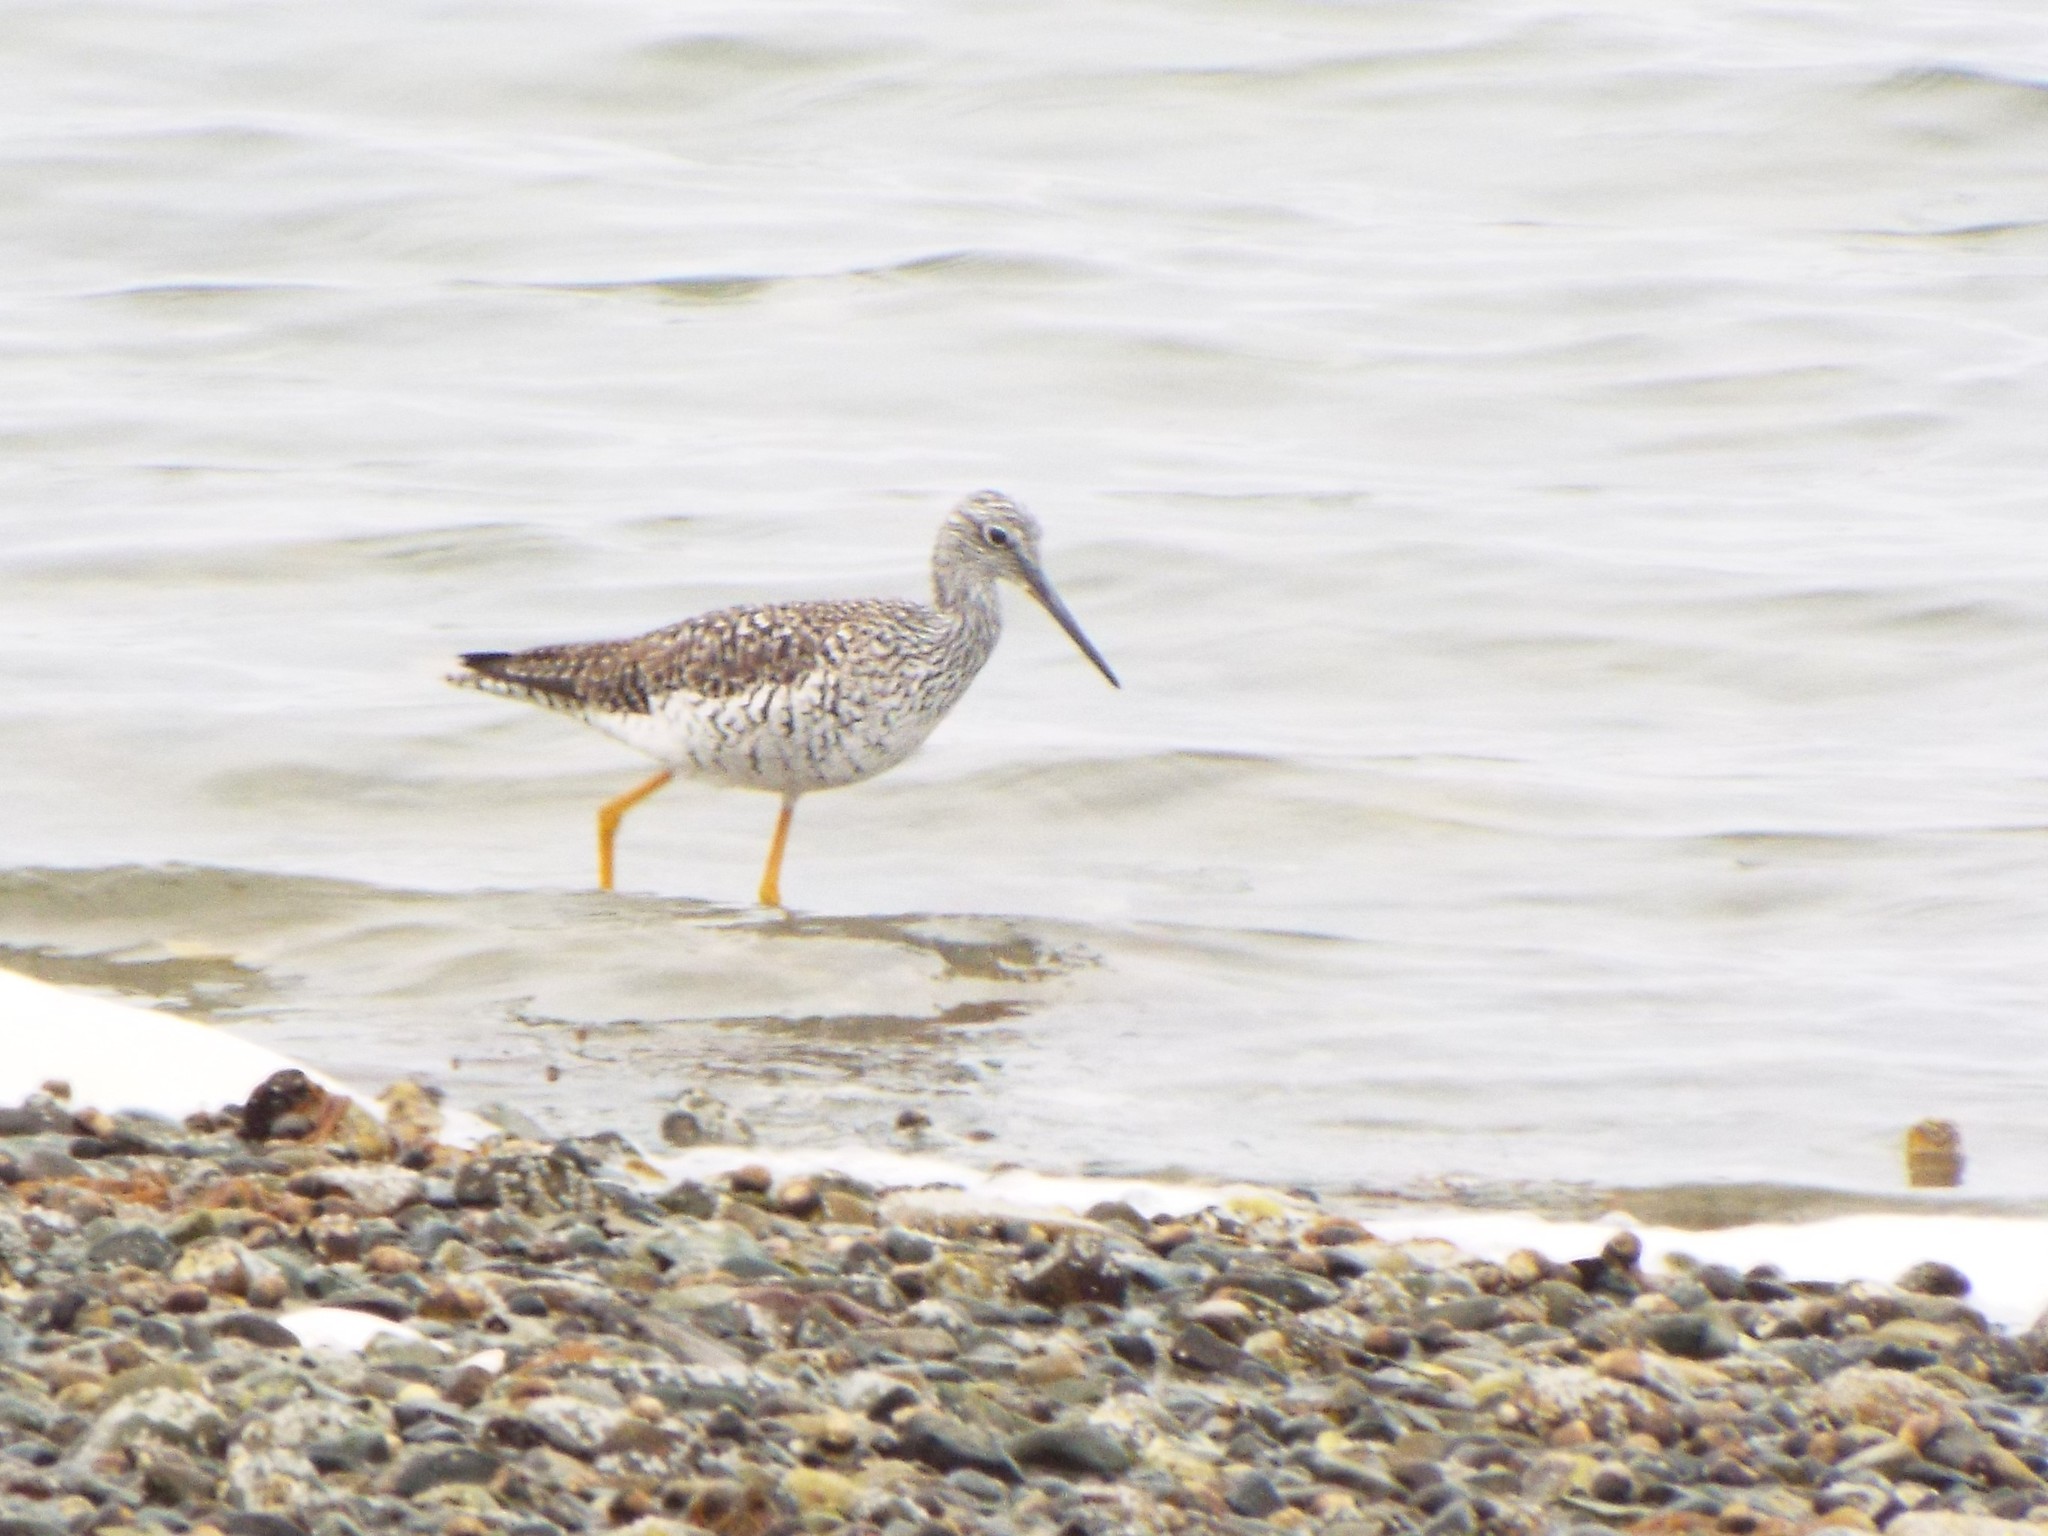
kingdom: Animalia
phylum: Chordata
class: Aves
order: Charadriiformes
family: Scolopacidae
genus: Tringa
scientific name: Tringa melanoleuca
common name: Greater yellowlegs
